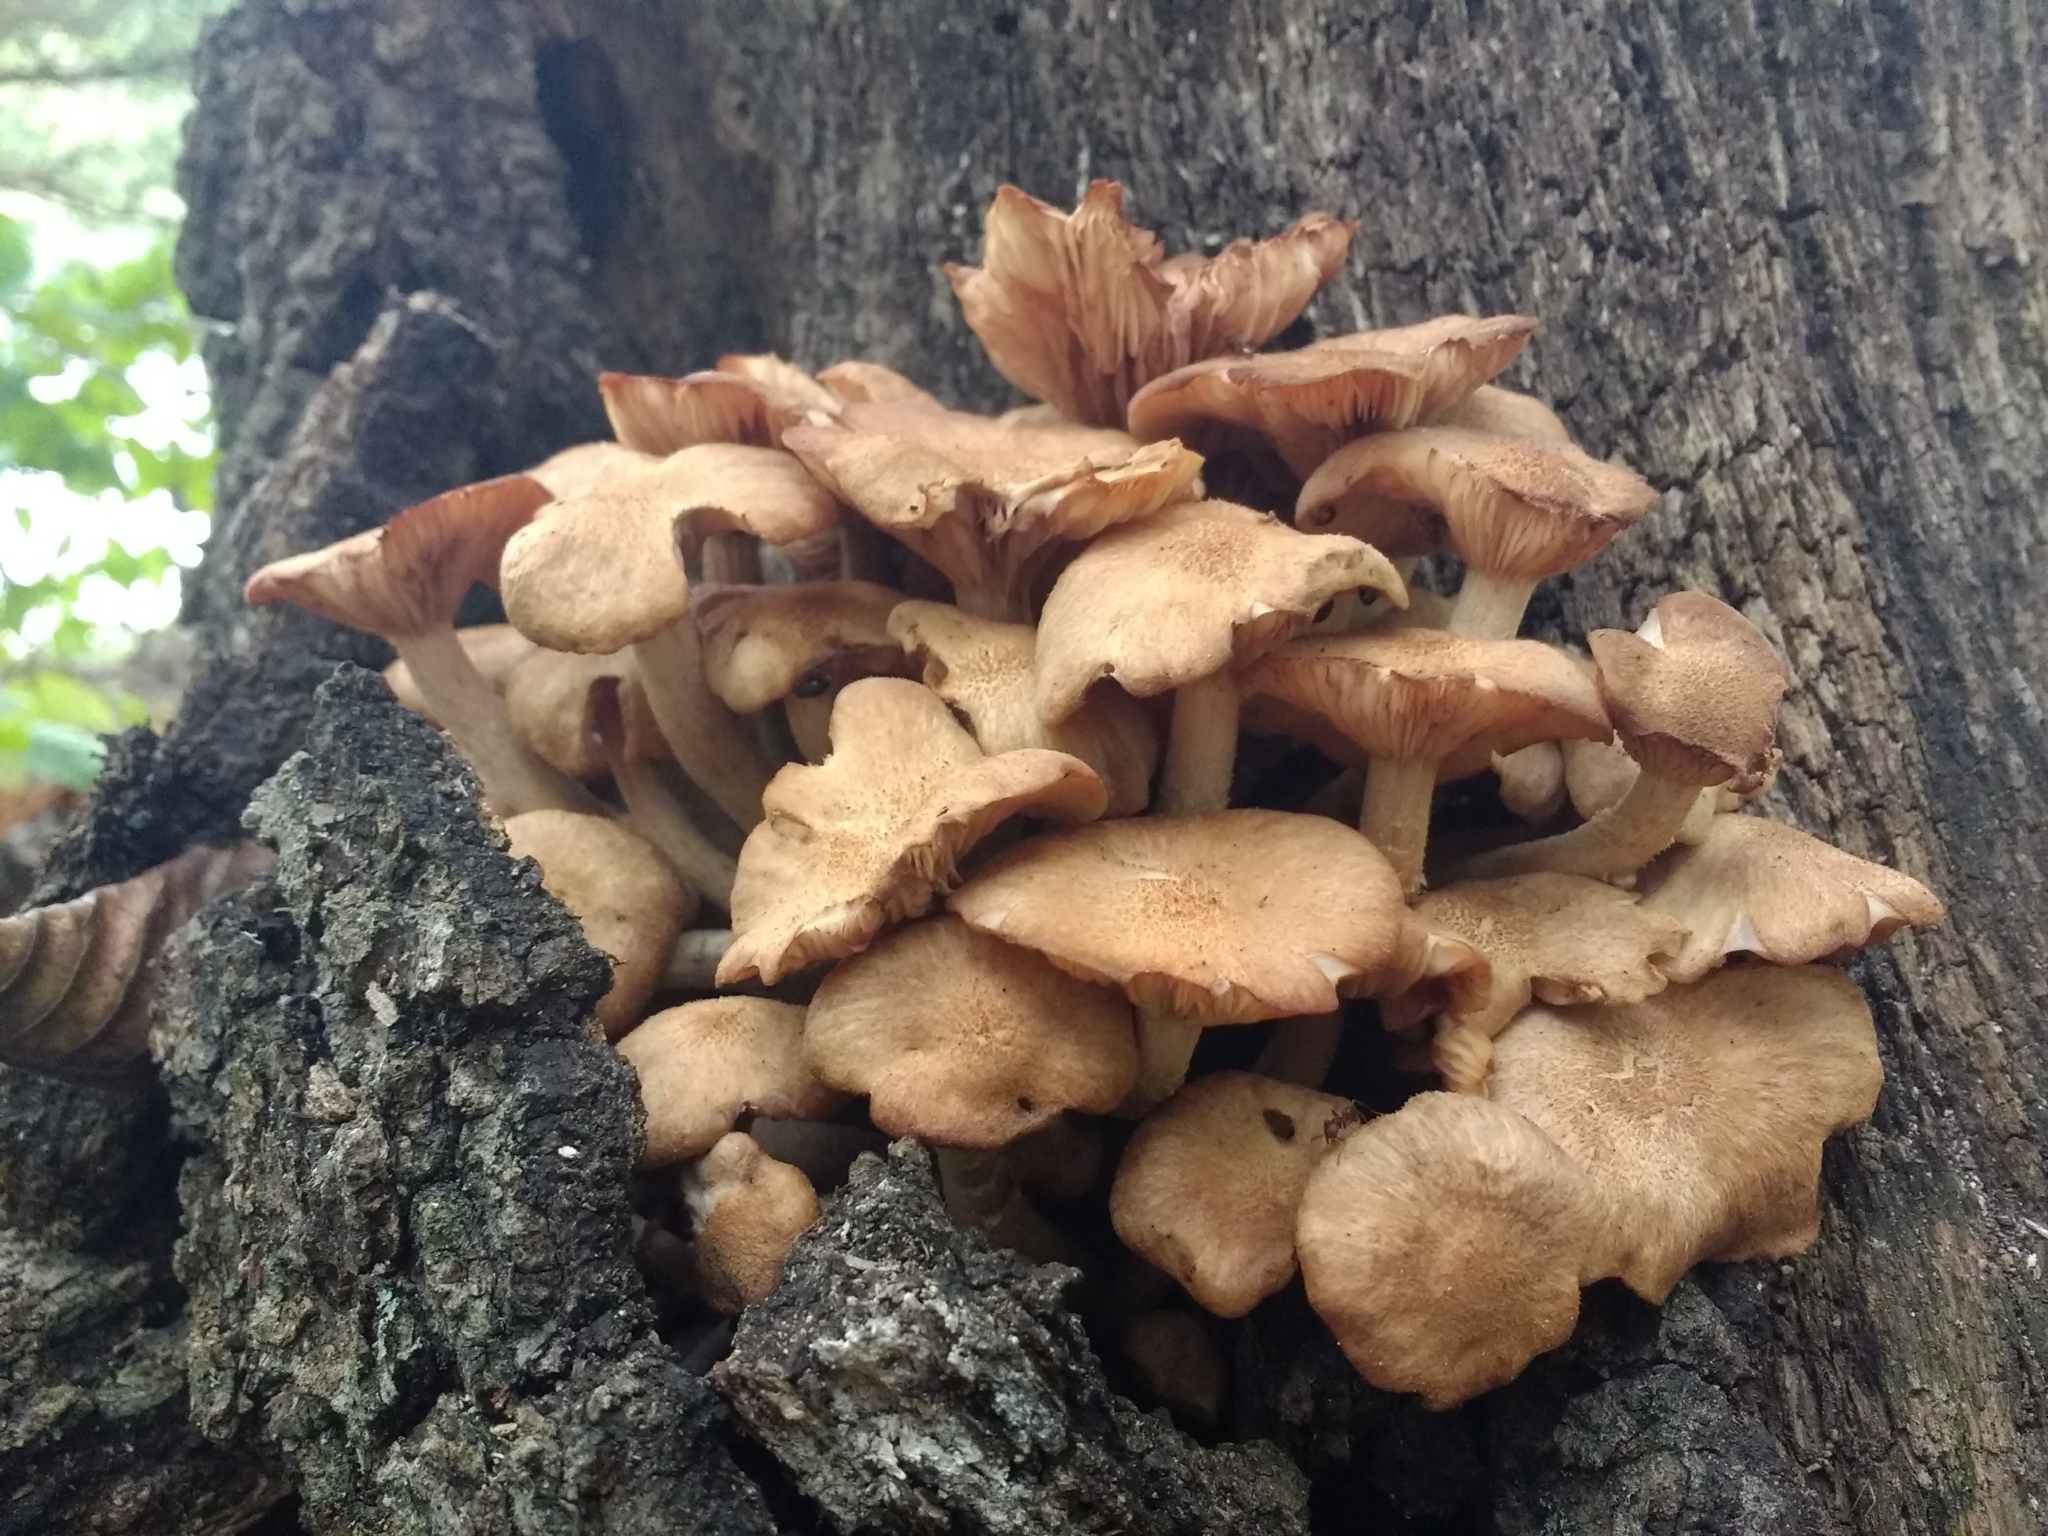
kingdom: Fungi
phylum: Basidiomycota
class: Agaricomycetes
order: Agaricales
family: Physalacriaceae
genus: Desarmillaria
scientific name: Desarmillaria caespitosa
